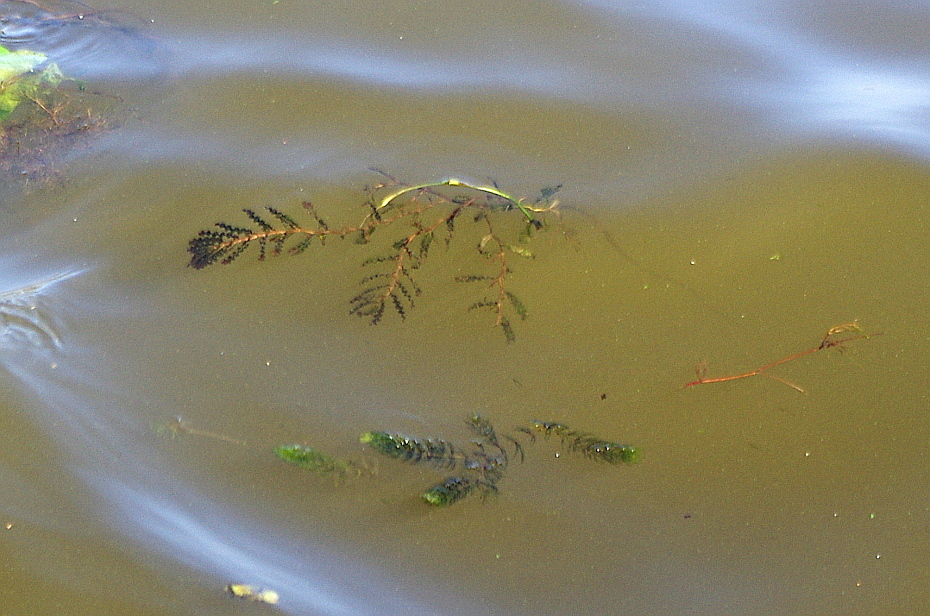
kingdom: Plantae
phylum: Tracheophyta
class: Liliopsida
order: Alismatales
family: Potamogetonaceae
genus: Potamogeton
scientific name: Potamogeton crispus
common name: Curled pondweed
